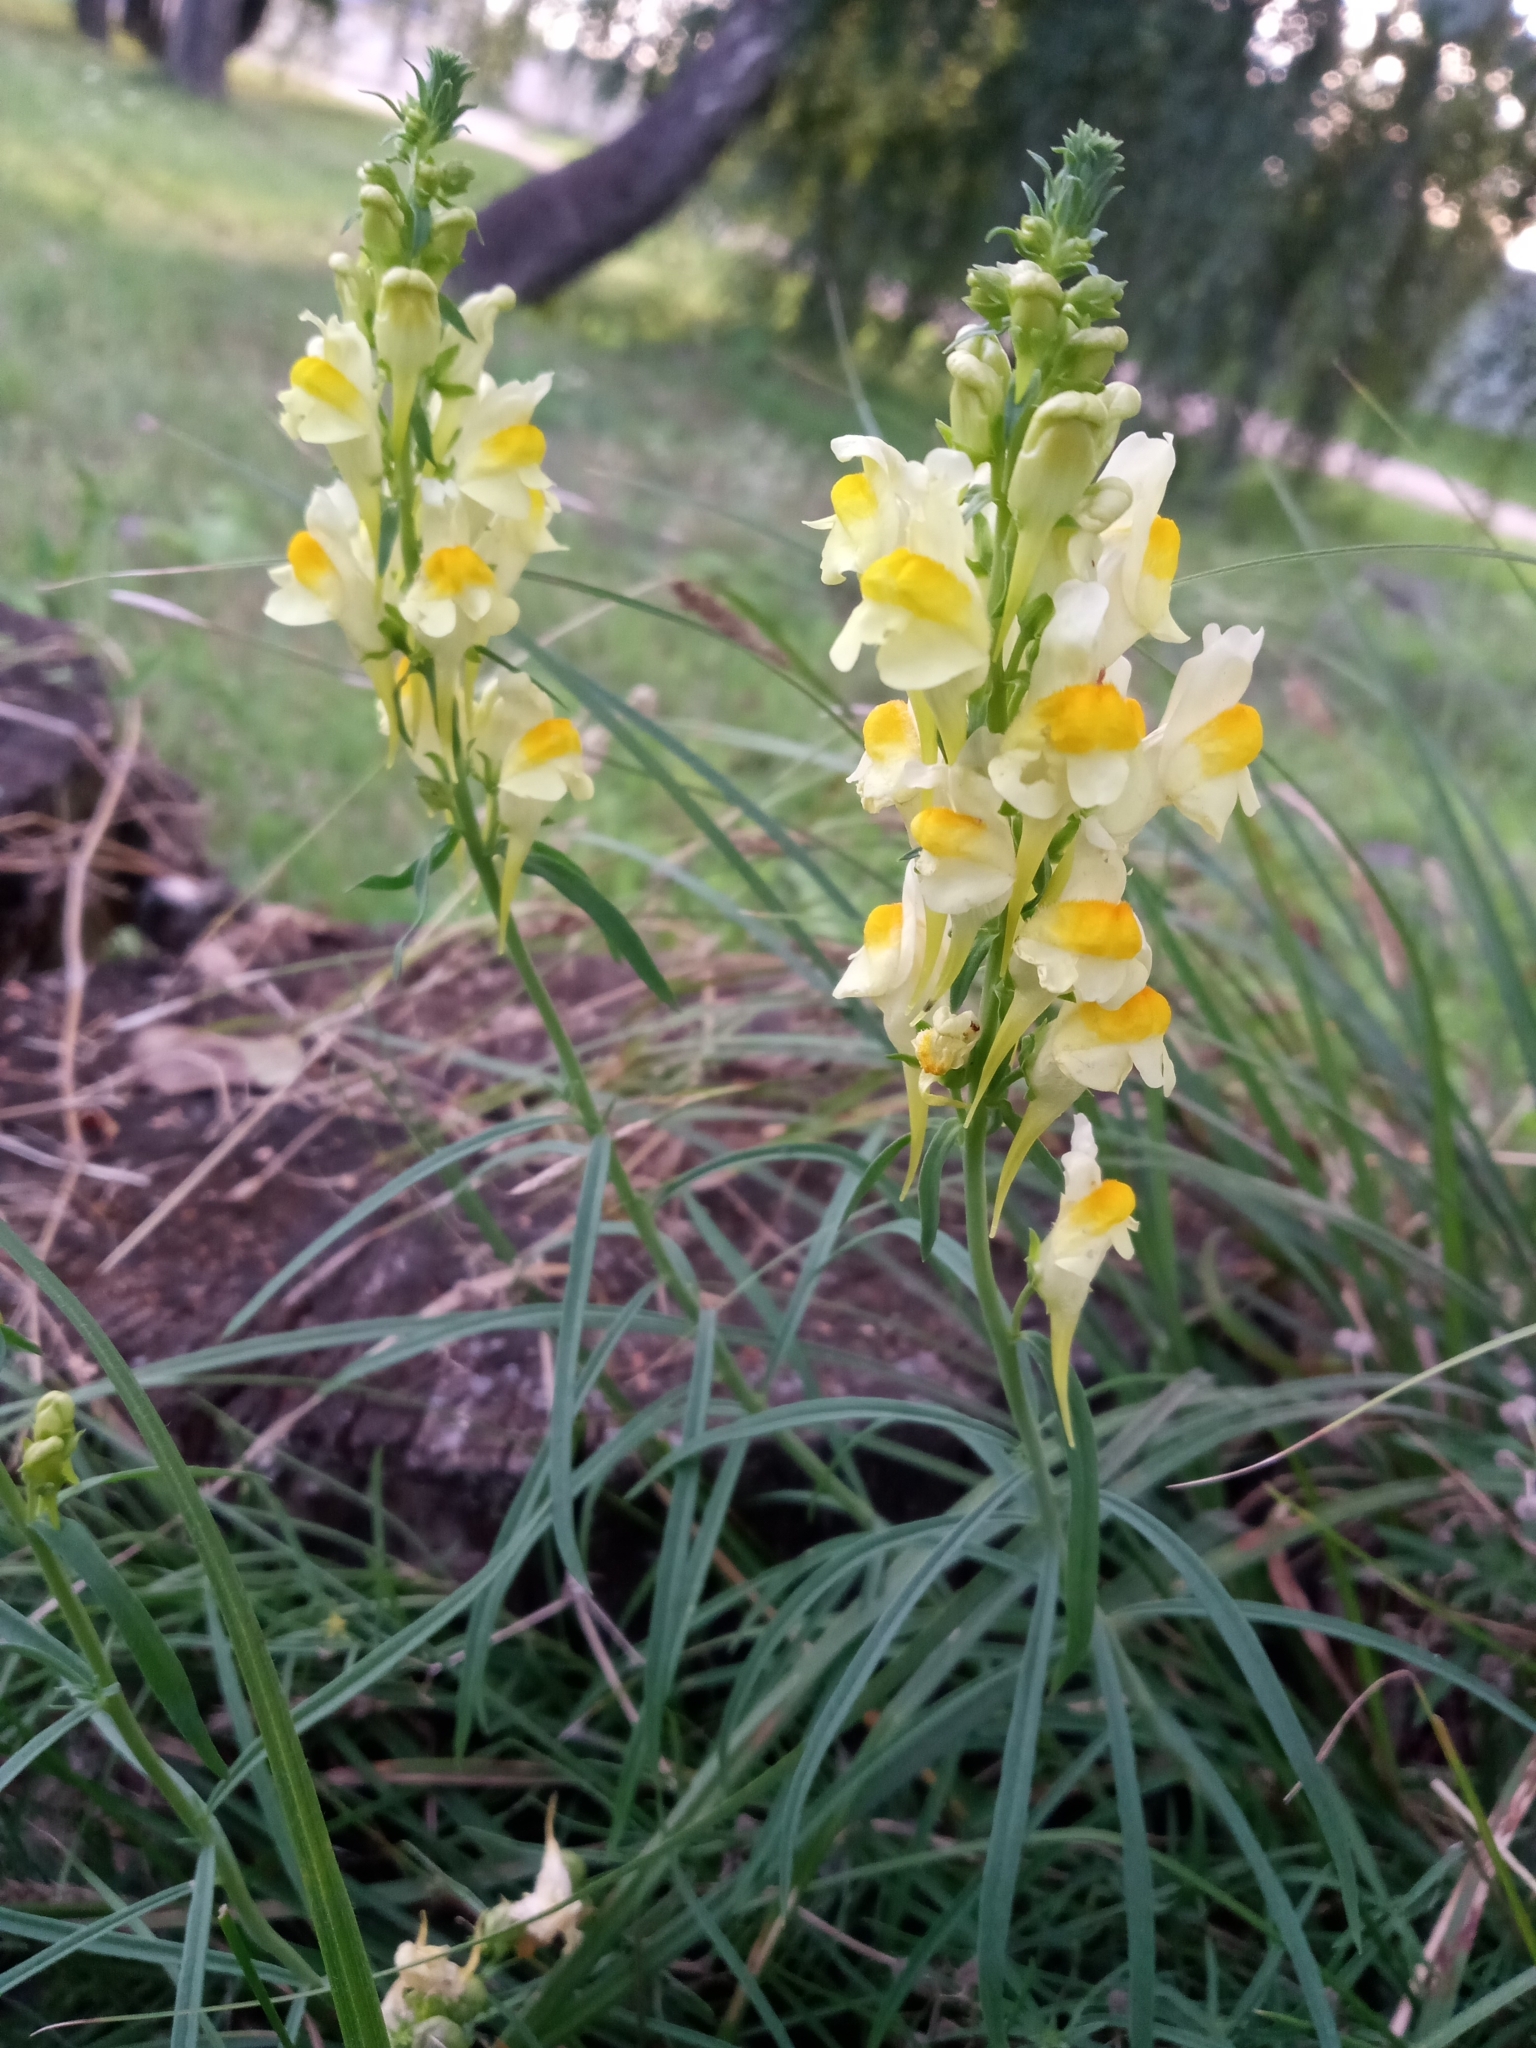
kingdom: Plantae
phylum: Tracheophyta
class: Magnoliopsida
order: Lamiales
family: Plantaginaceae
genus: Linaria
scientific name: Linaria vulgaris
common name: Butter and eggs
